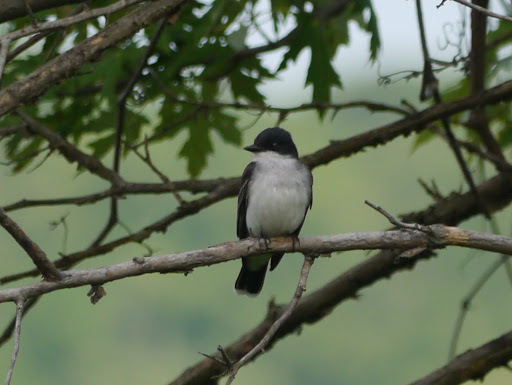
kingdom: Animalia
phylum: Chordata
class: Aves
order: Passeriformes
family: Tyrannidae
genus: Tyrannus
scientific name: Tyrannus tyrannus
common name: Eastern kingbird
